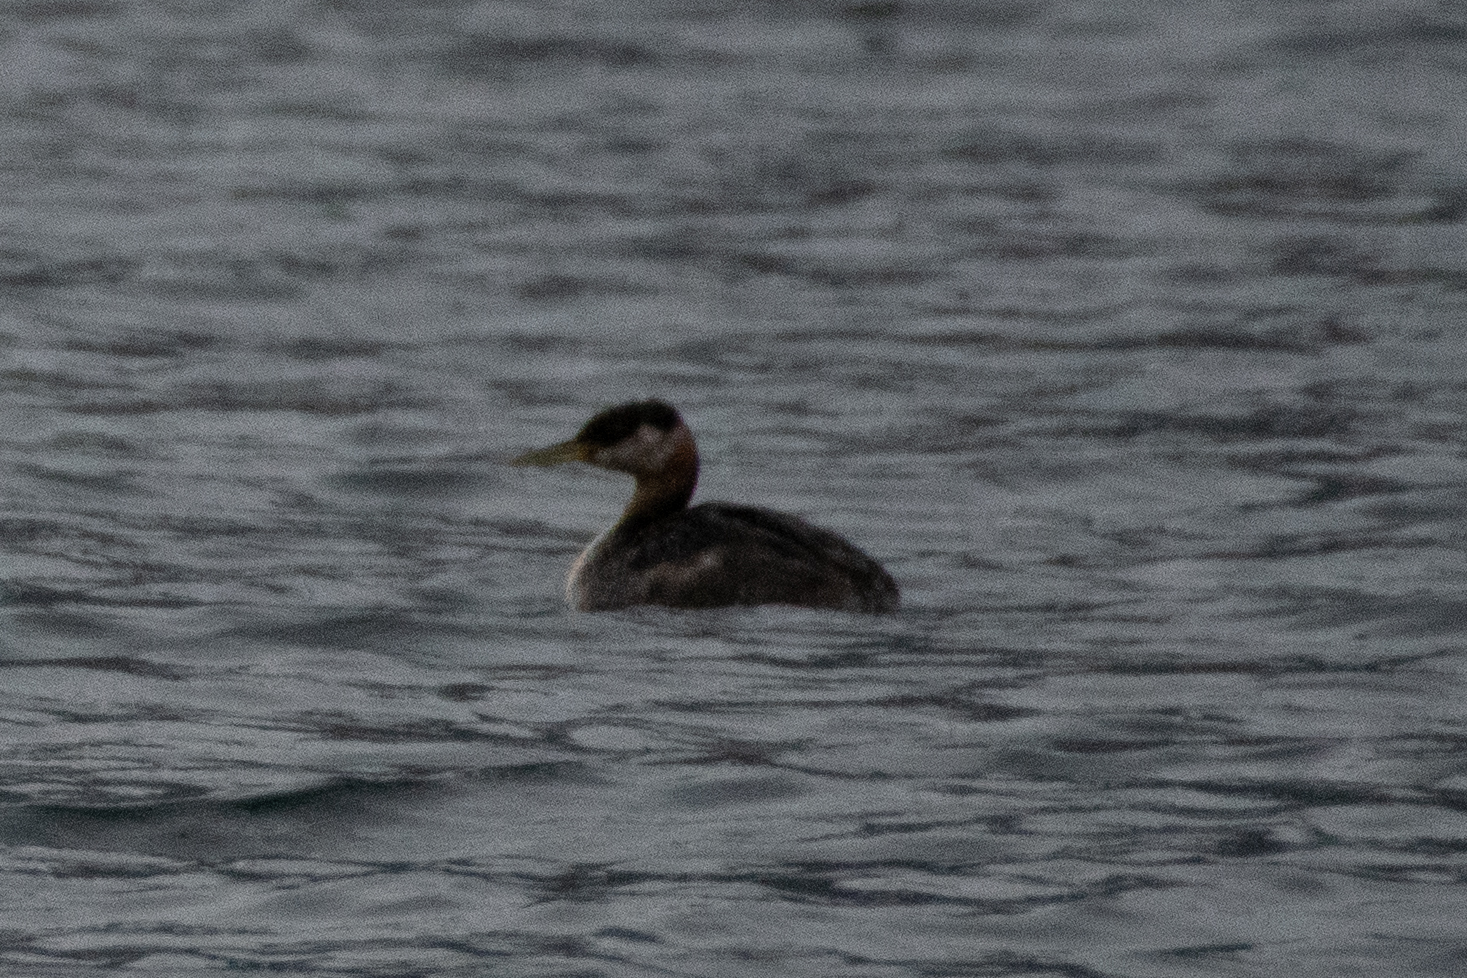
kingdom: Animalia
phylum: Chordata
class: Aves
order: Podicipediformes
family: Podicipedidae
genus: Podiceps
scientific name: Podiceps grisegena
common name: Red-necked grebe
